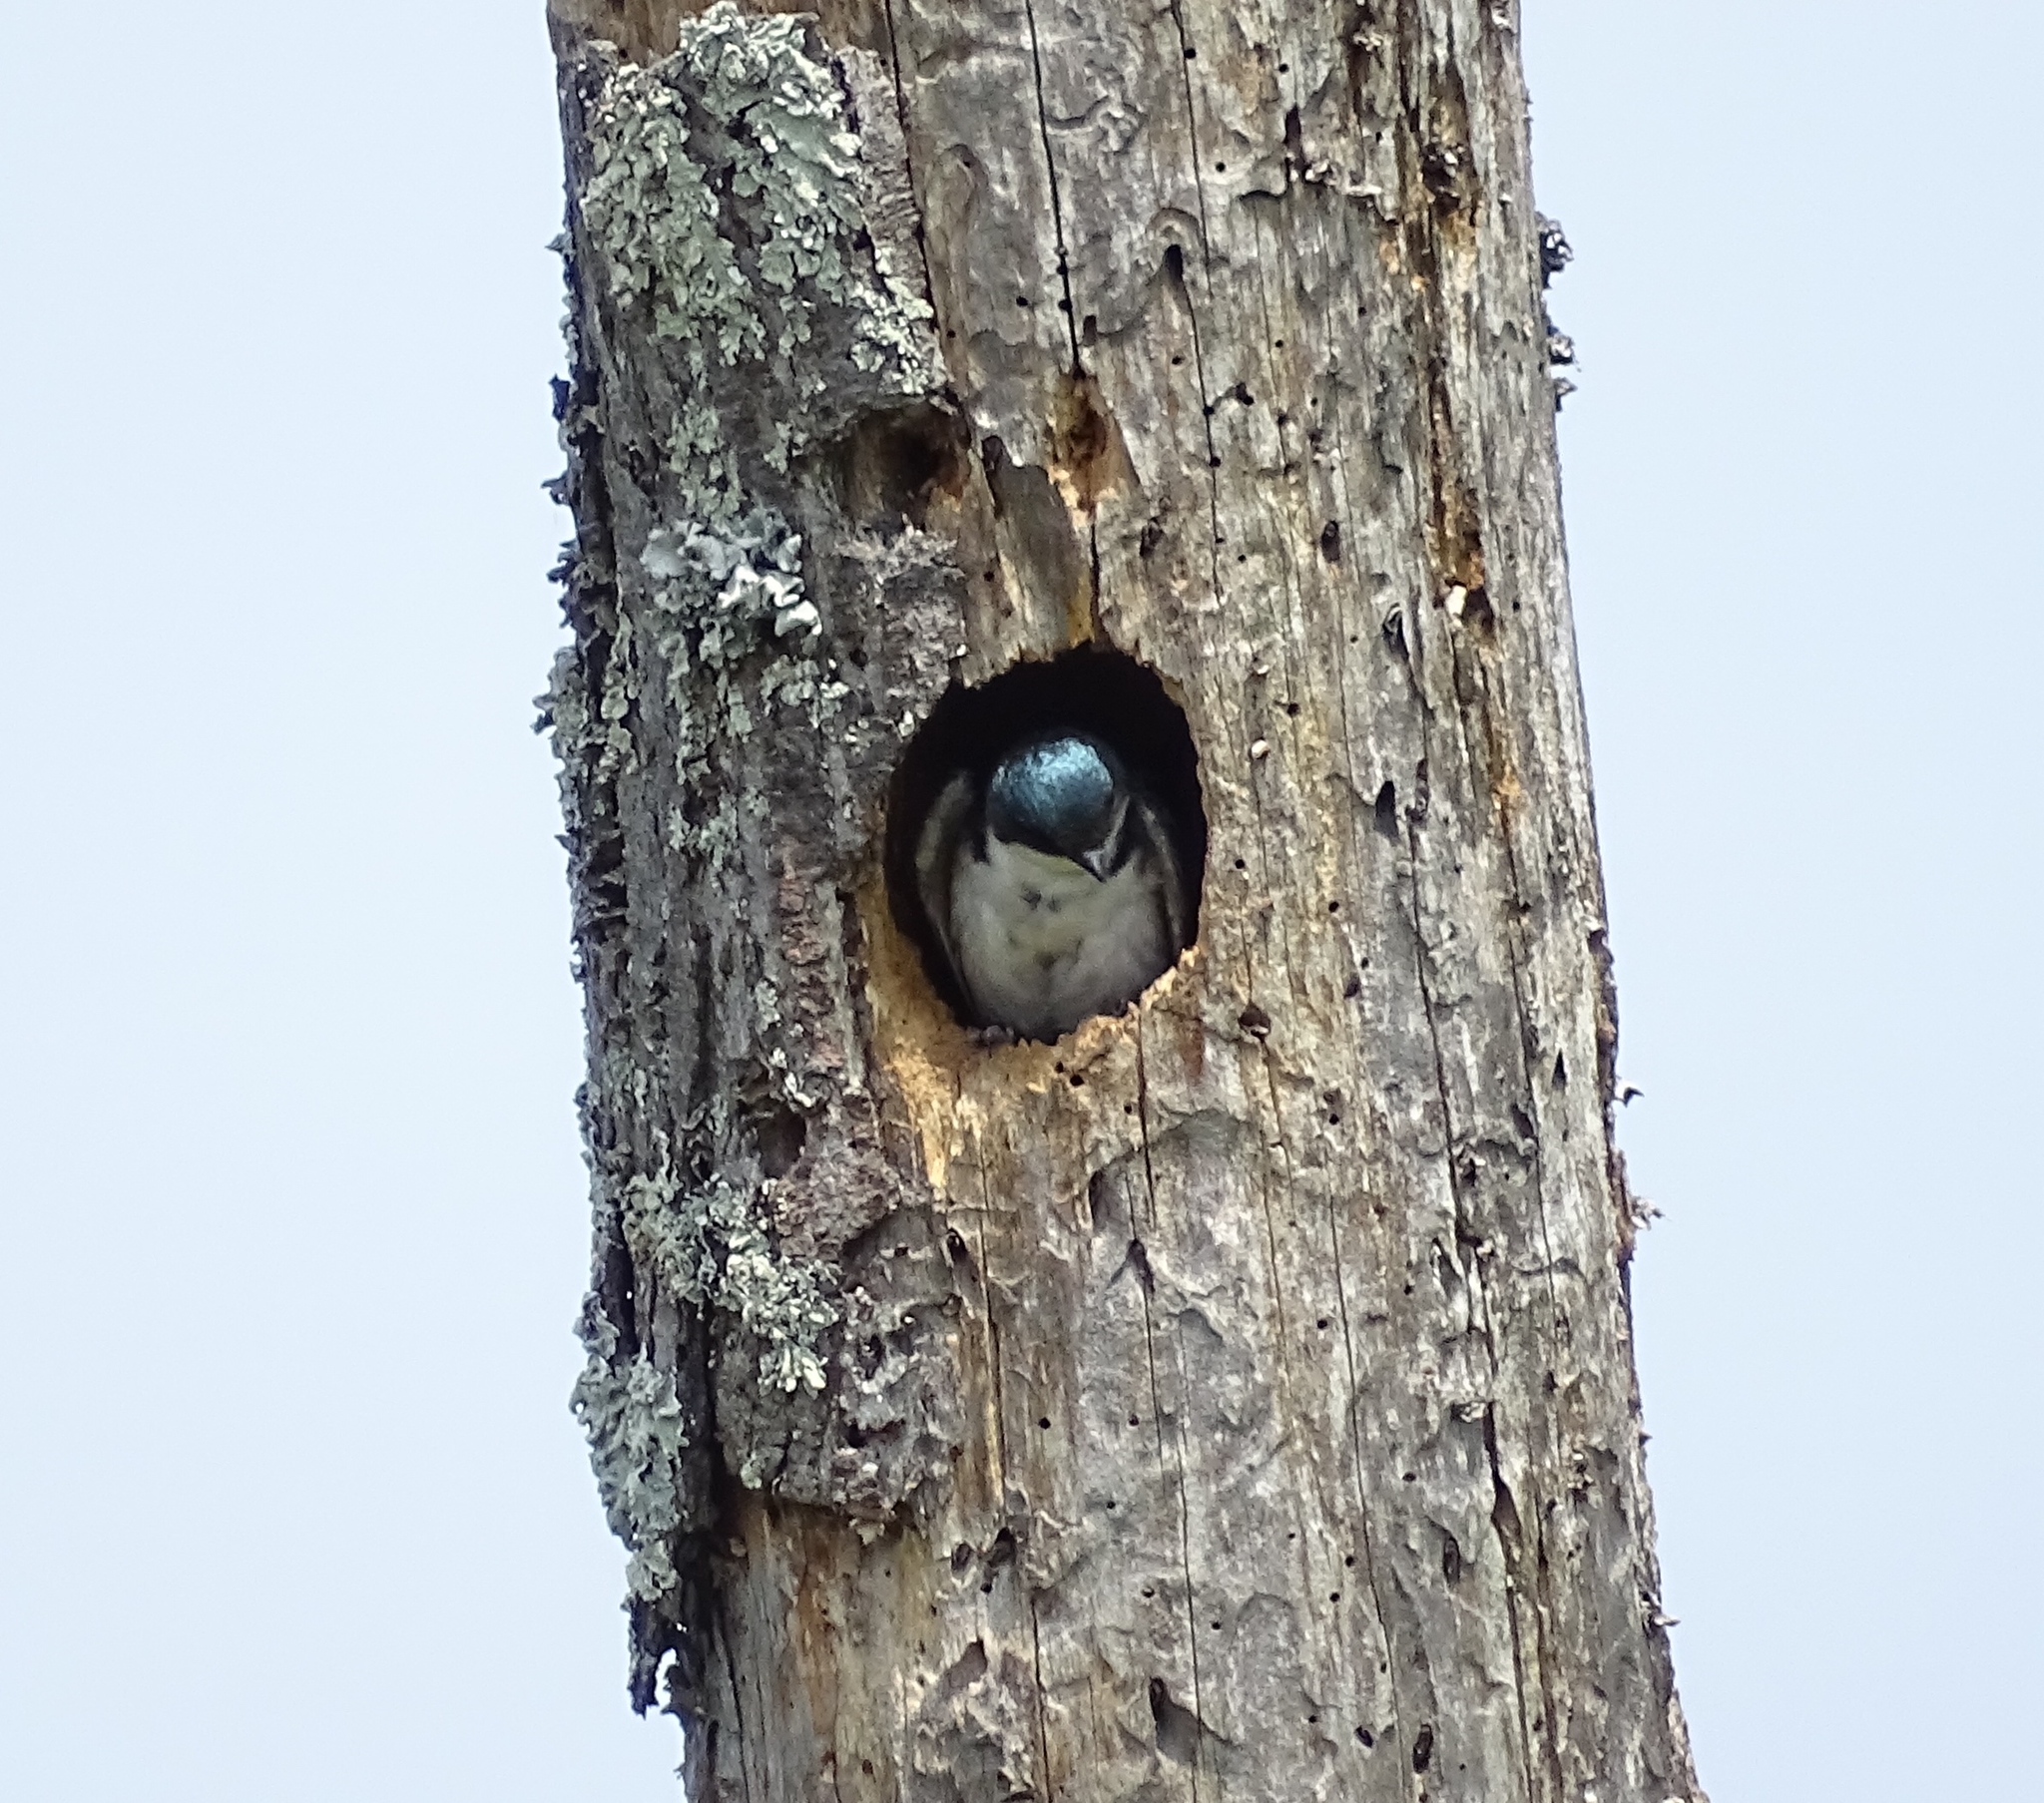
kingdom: Animalia
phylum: Chordata
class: Aves
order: Passeriformes
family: Hirundinidae
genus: Tachycineta
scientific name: Tachycineta bicolor
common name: Tree swallow
